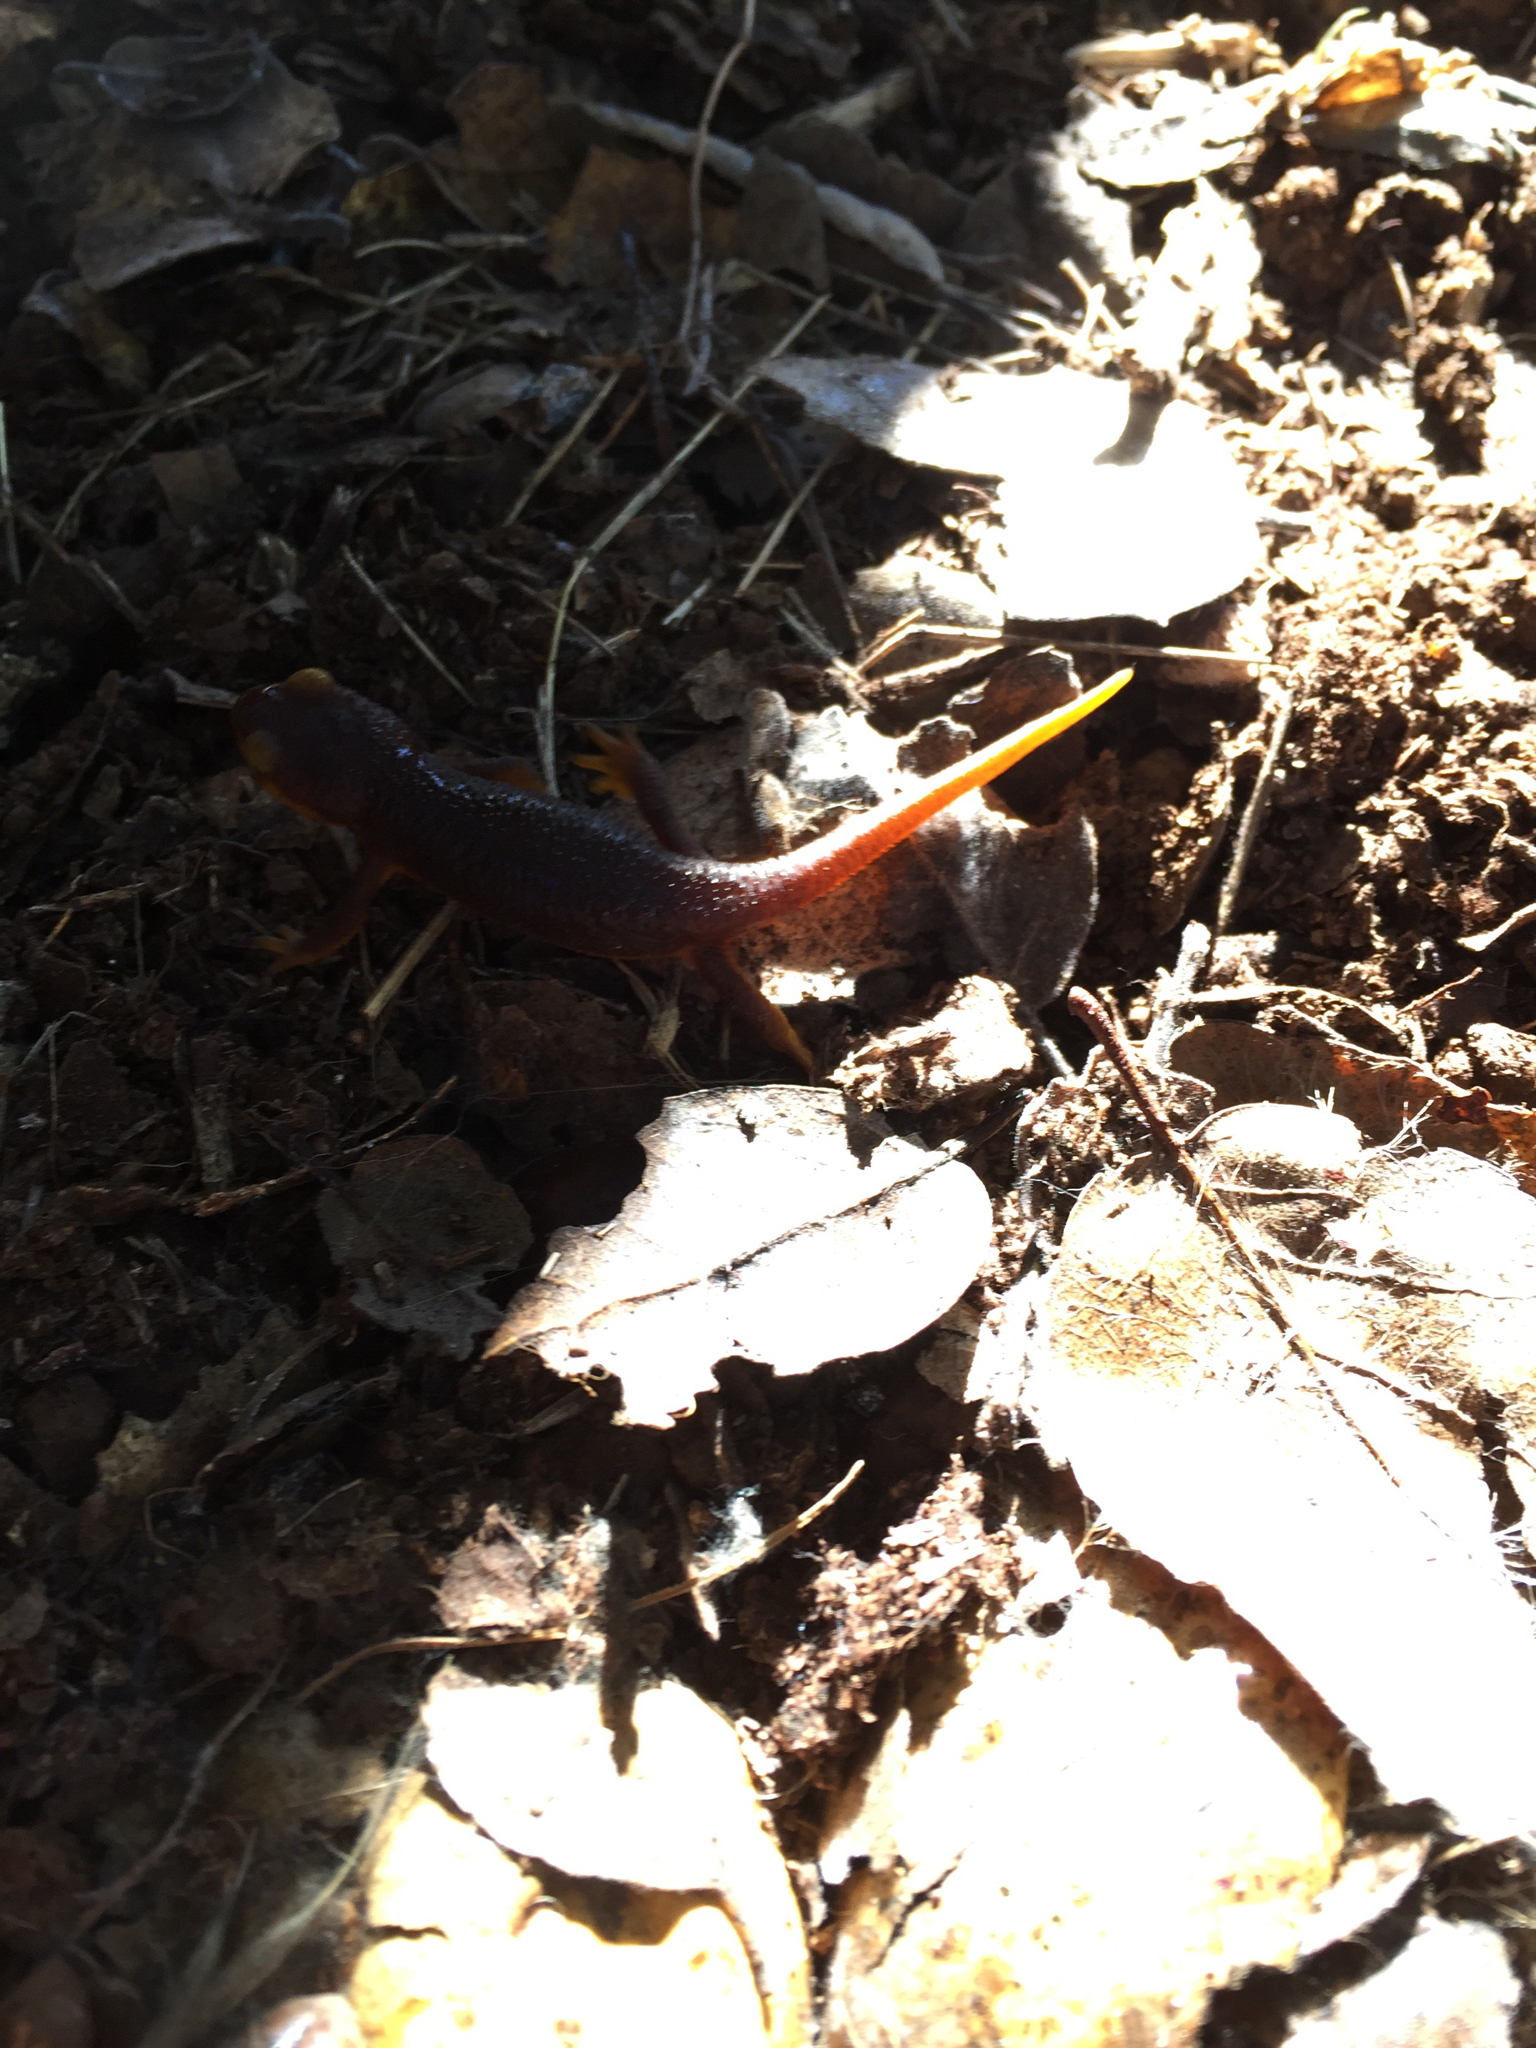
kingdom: Animalia
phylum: Chordata
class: Amphibia
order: Caudata
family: Salamandridae
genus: Taricha
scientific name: Taricha torosa
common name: California newt
